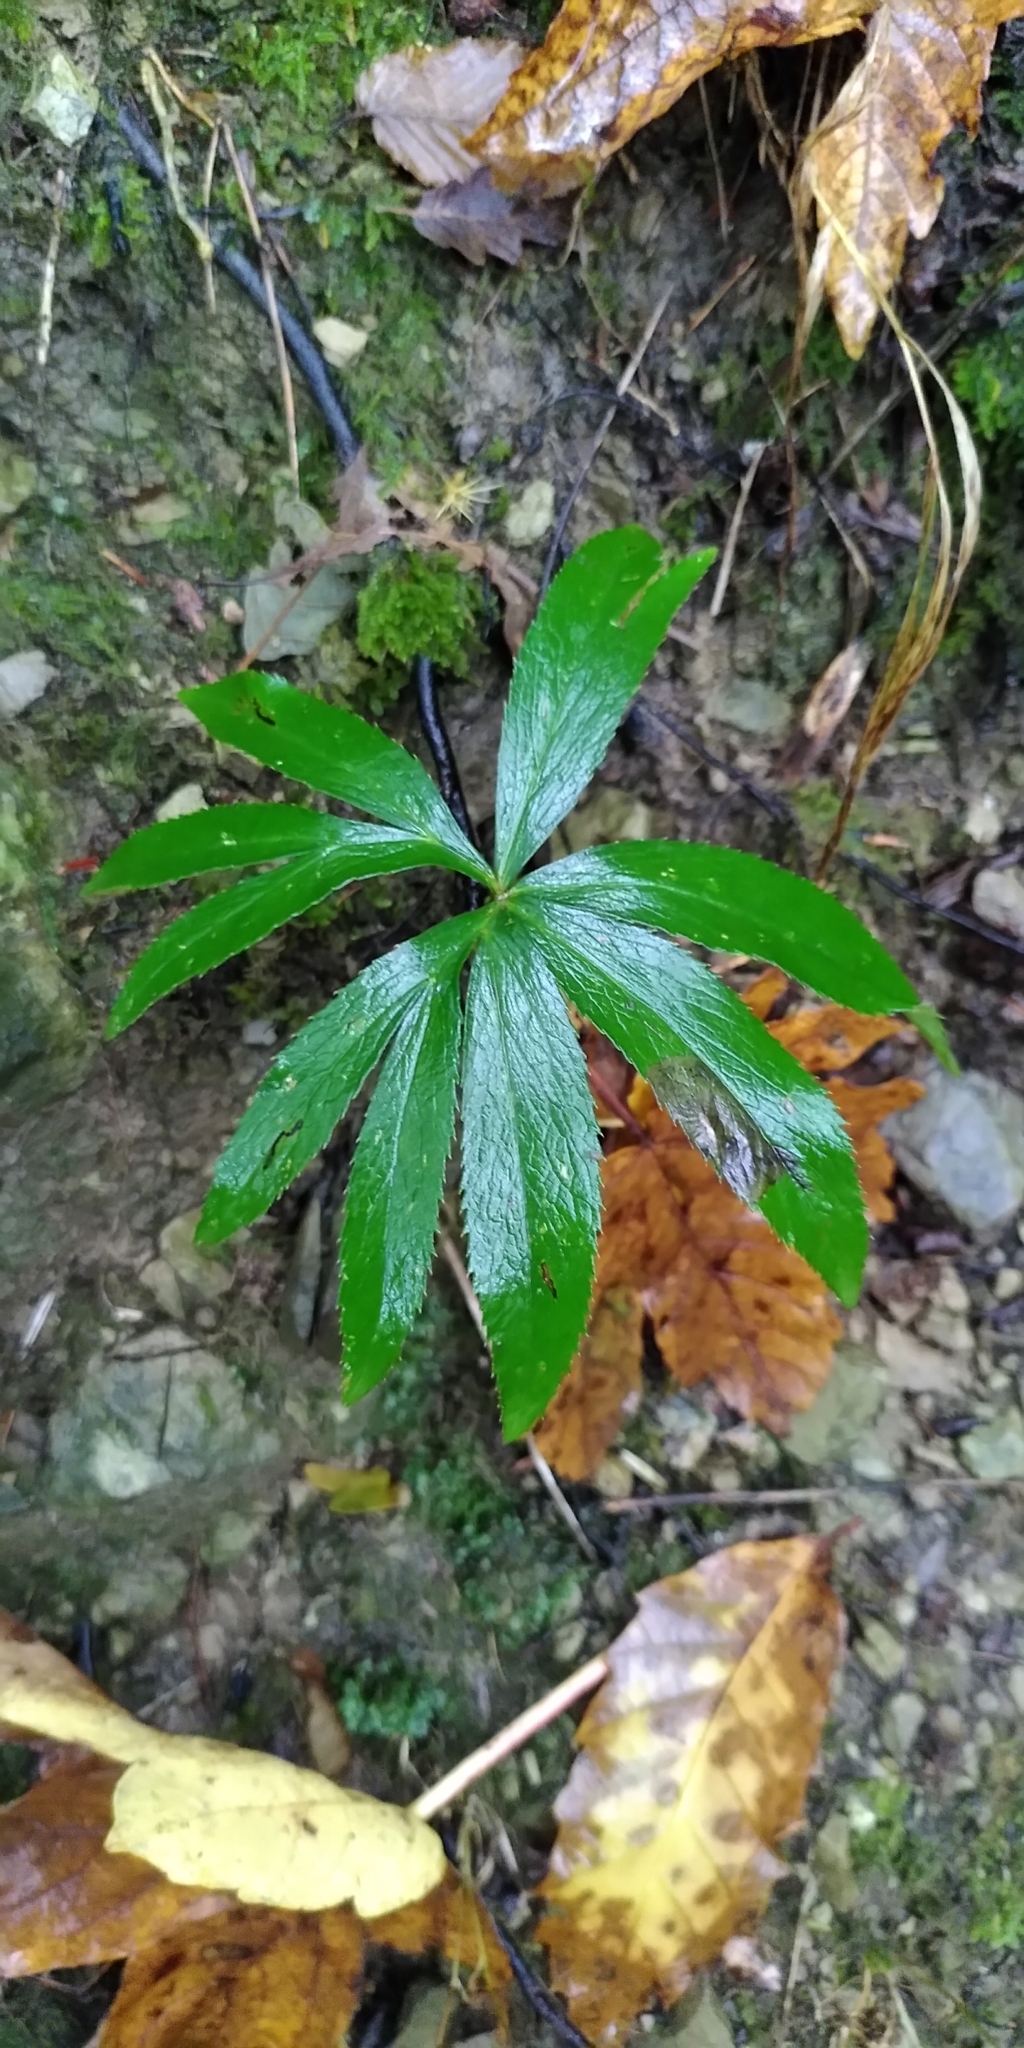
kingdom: Plantae
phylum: Tracheophyta
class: Magnoliopsida
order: Ranunculales
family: Ranunculaceae
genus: Helleborus
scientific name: Helleborus viridis
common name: Green hellebore
